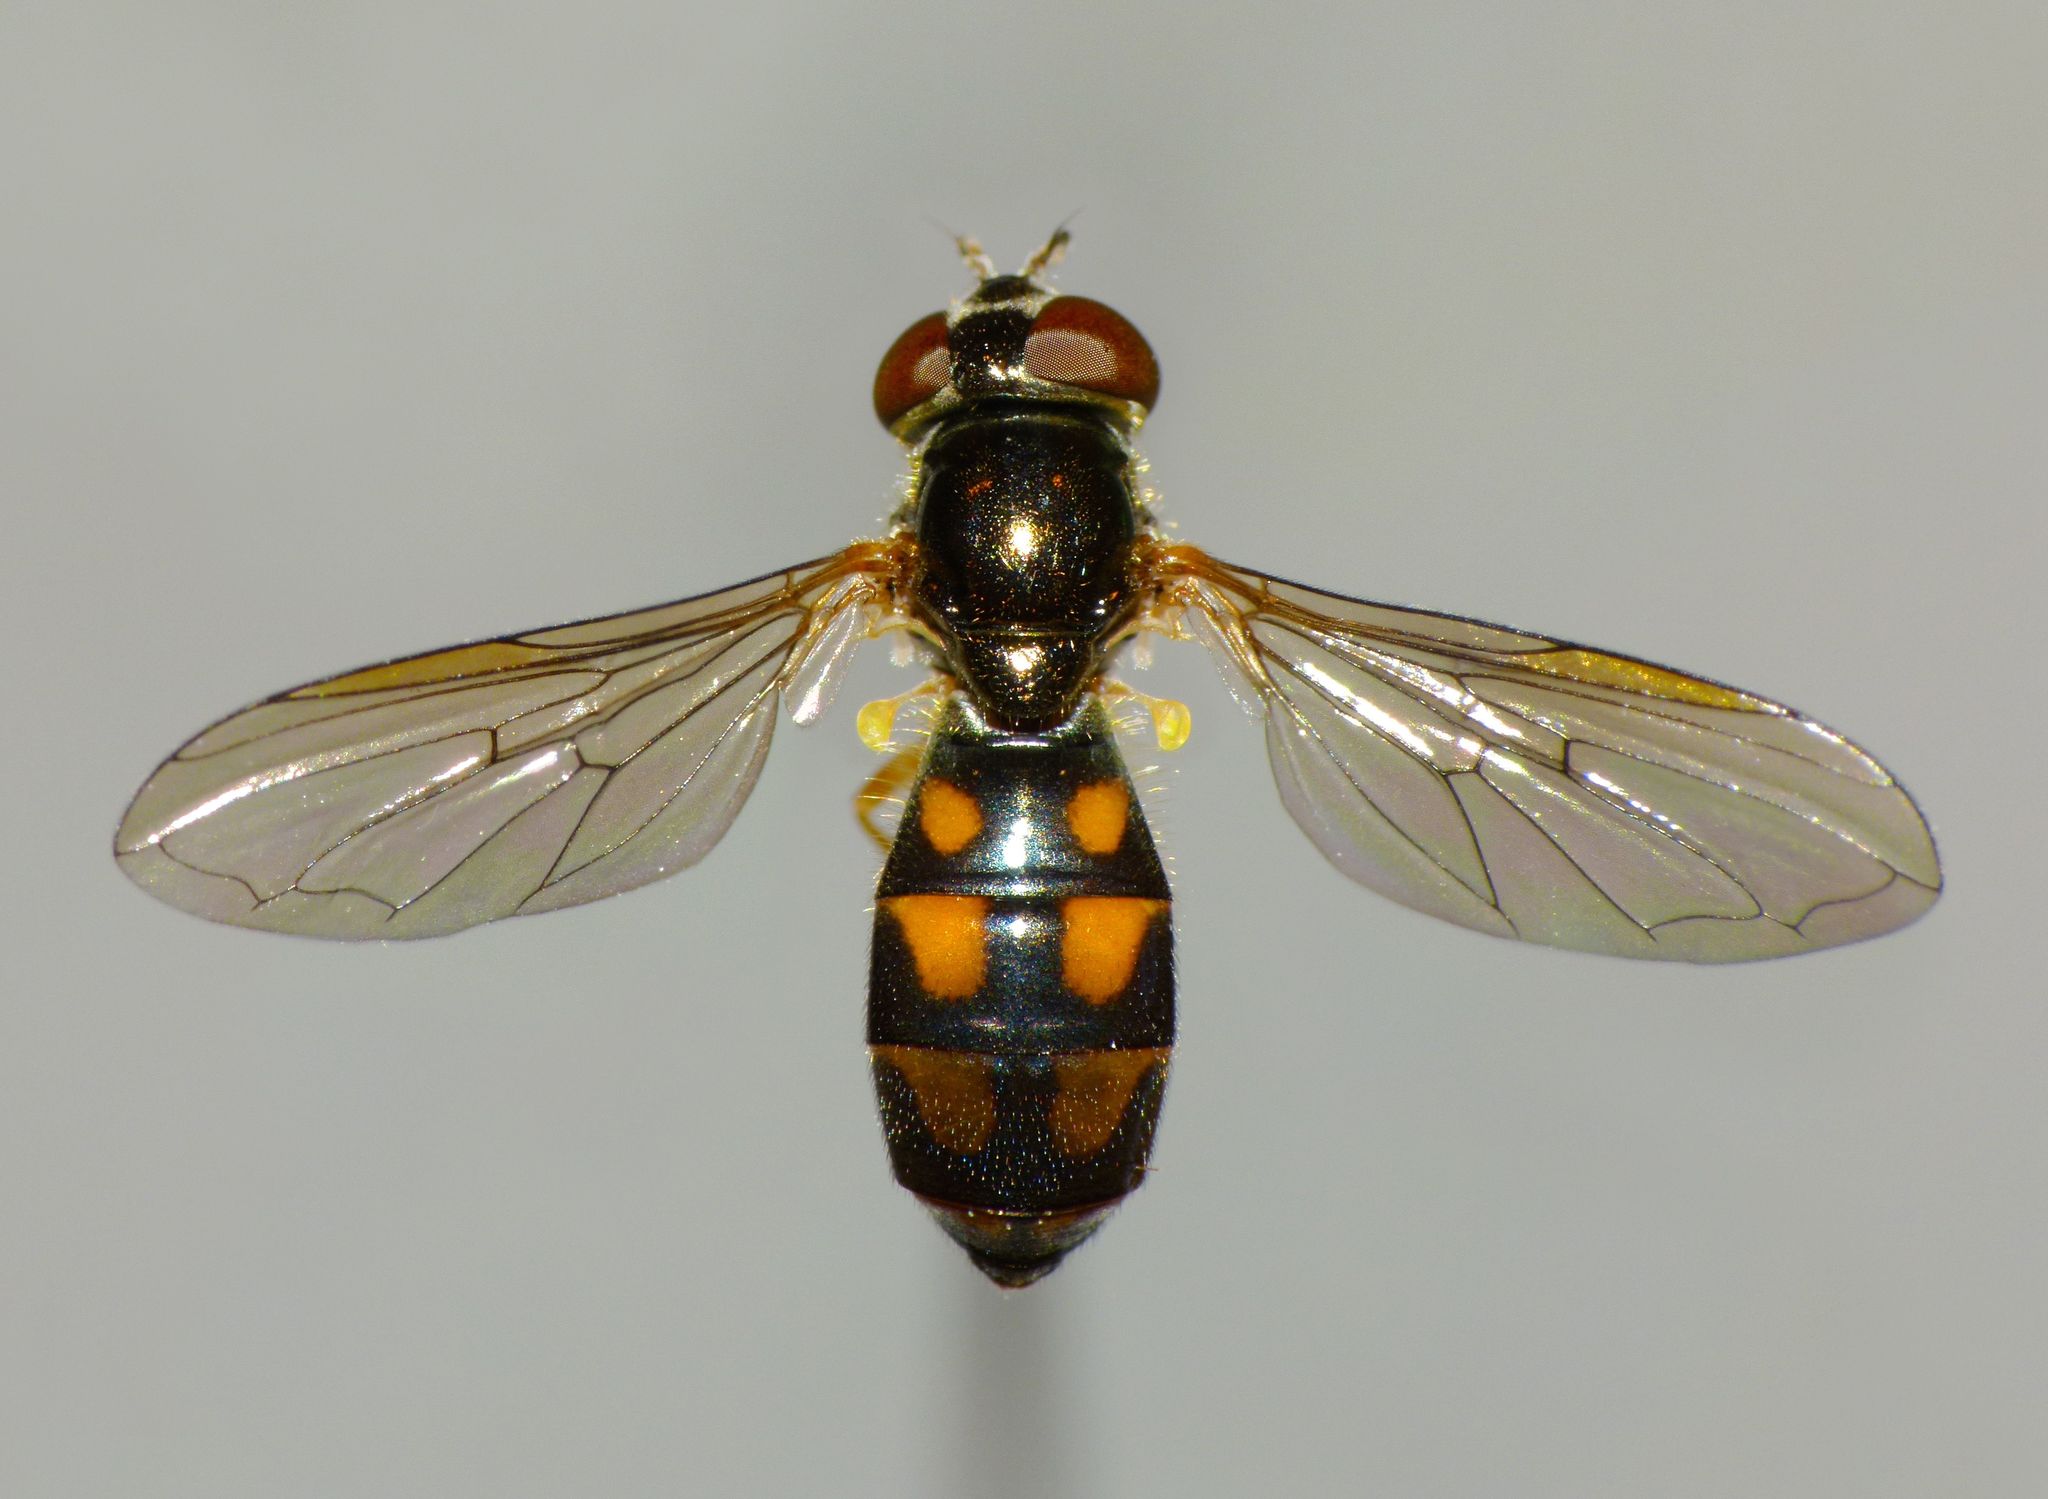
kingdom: Animalia
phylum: Arthropoda
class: Insecta
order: Diptera
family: Syrphidae
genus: Melanostoma
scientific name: Melanostoma fasciatum
